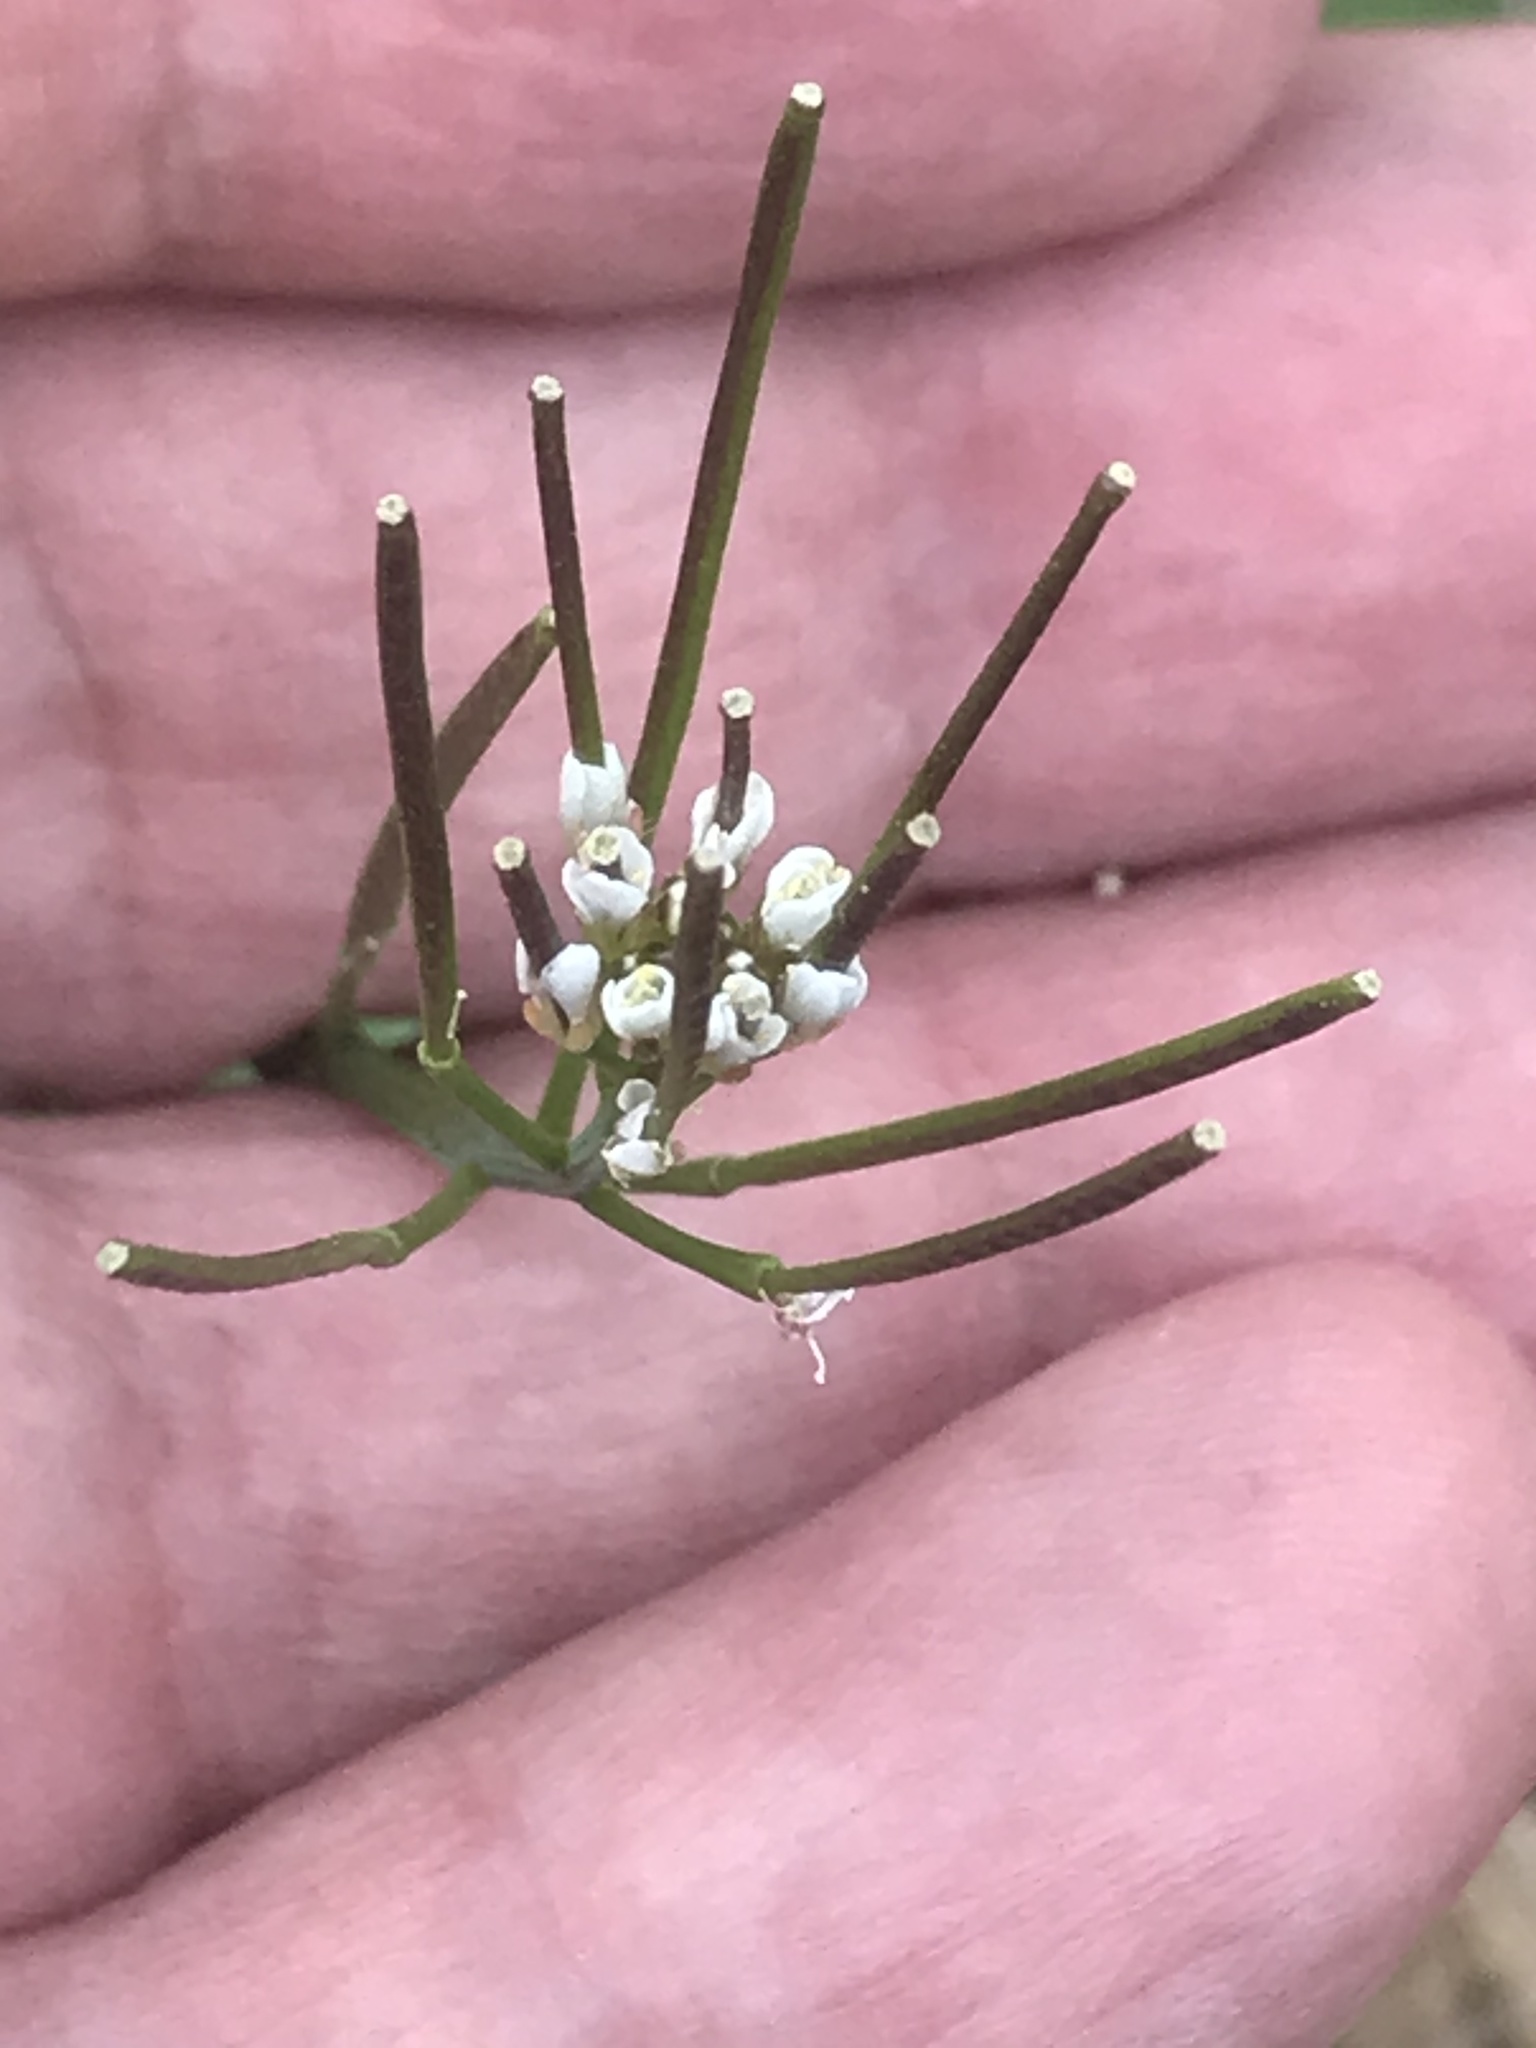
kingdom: Plantae
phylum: Tracheophyta
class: Magnoliopsida
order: Brassicales
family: Brassicaceae
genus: Cardamine
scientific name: Cardamine hirsuta
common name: Hairy bittercress
